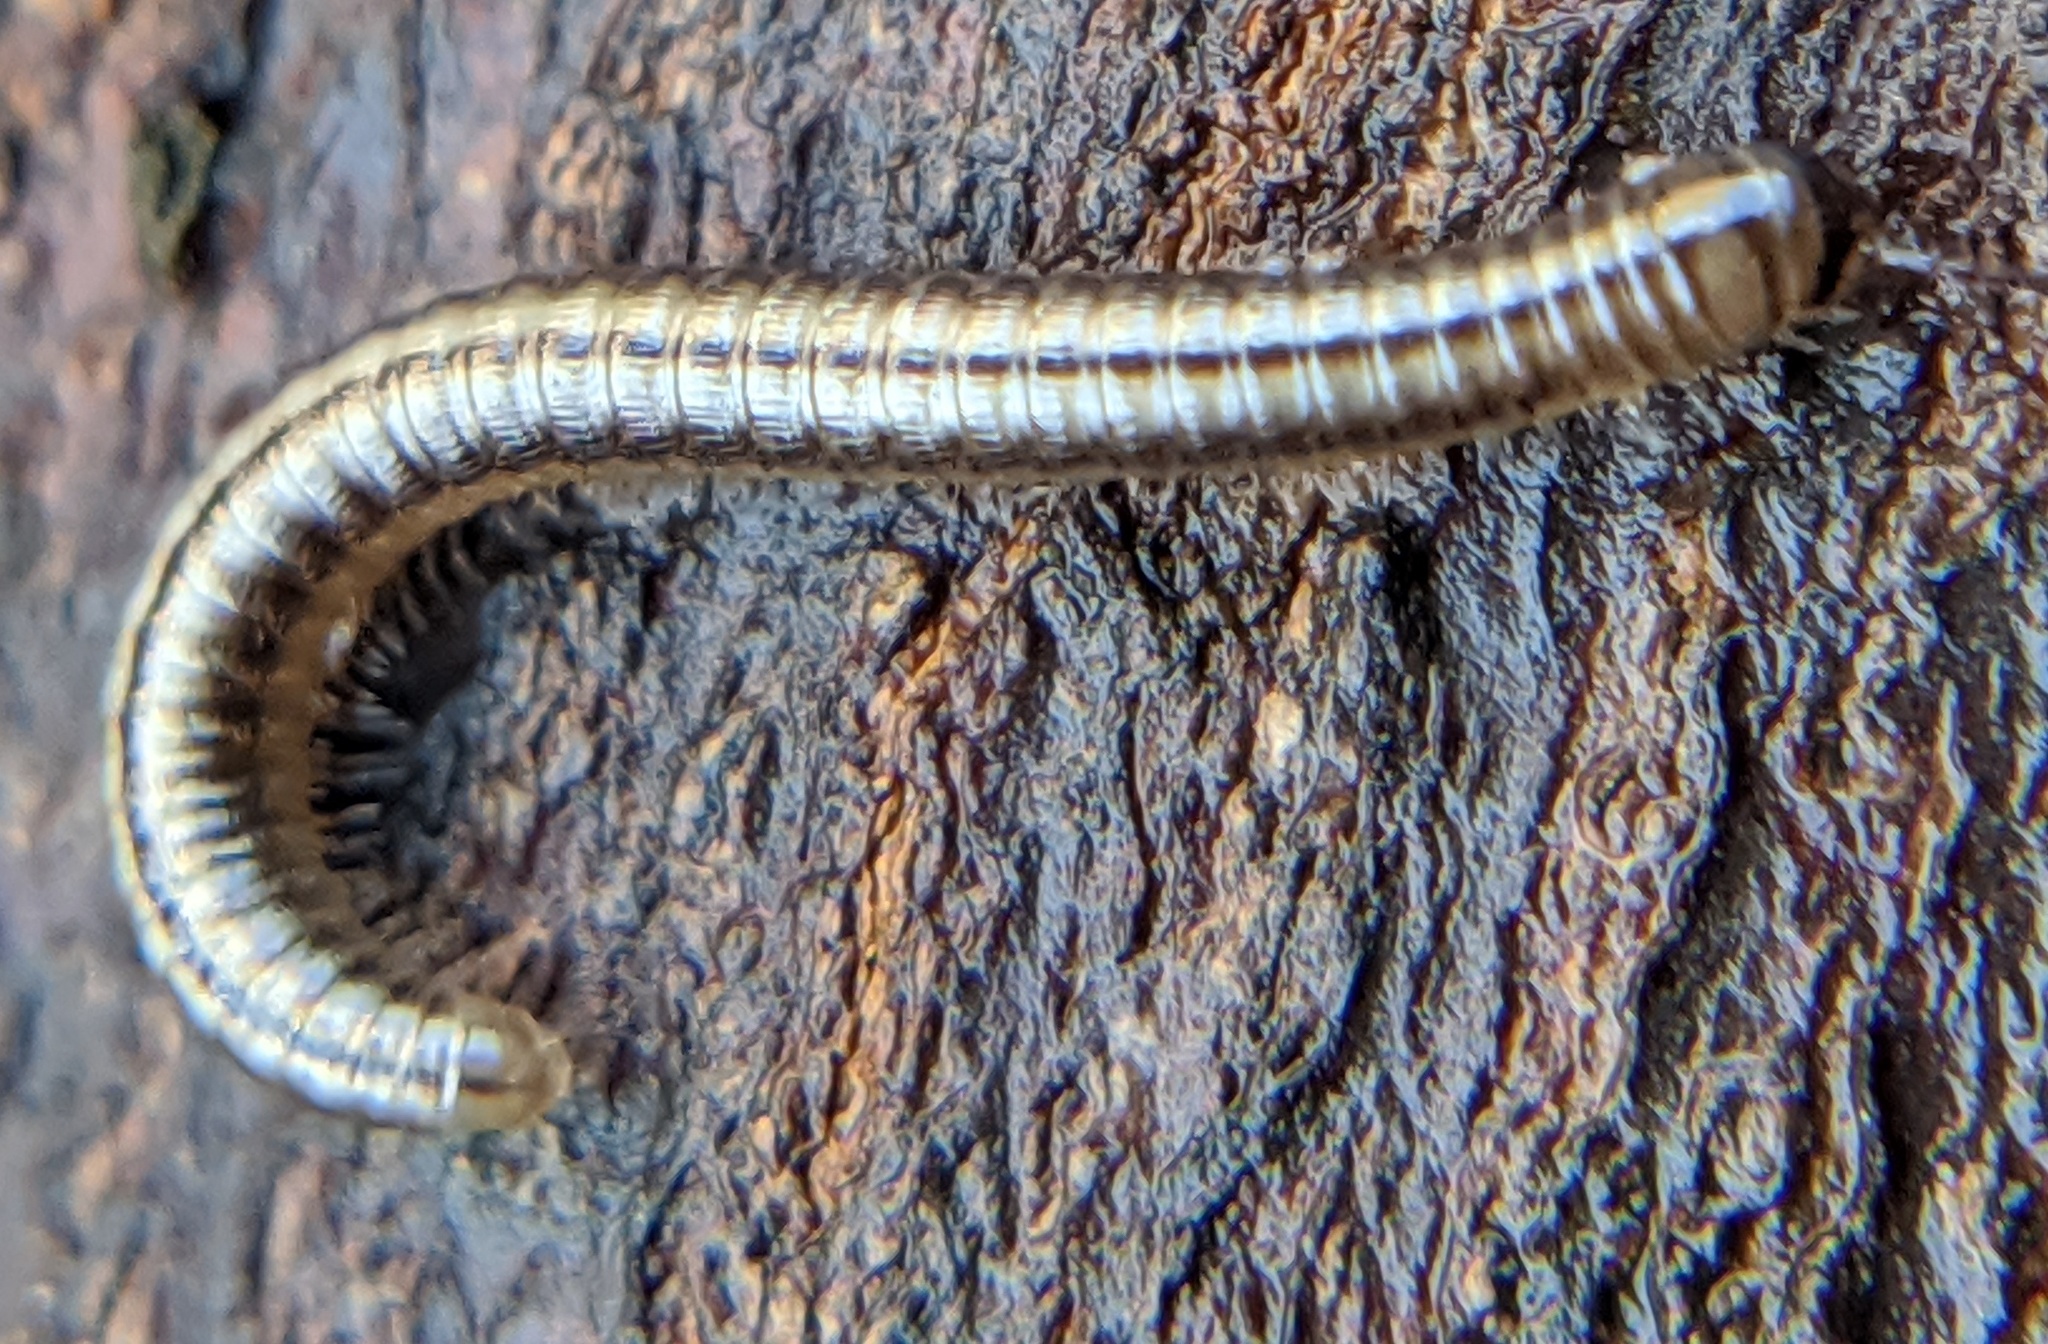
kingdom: Animalia
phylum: Arthropoda
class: Diplopoda
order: Julida
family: Julidae
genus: Brachyiulus
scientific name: Brachyiulus
